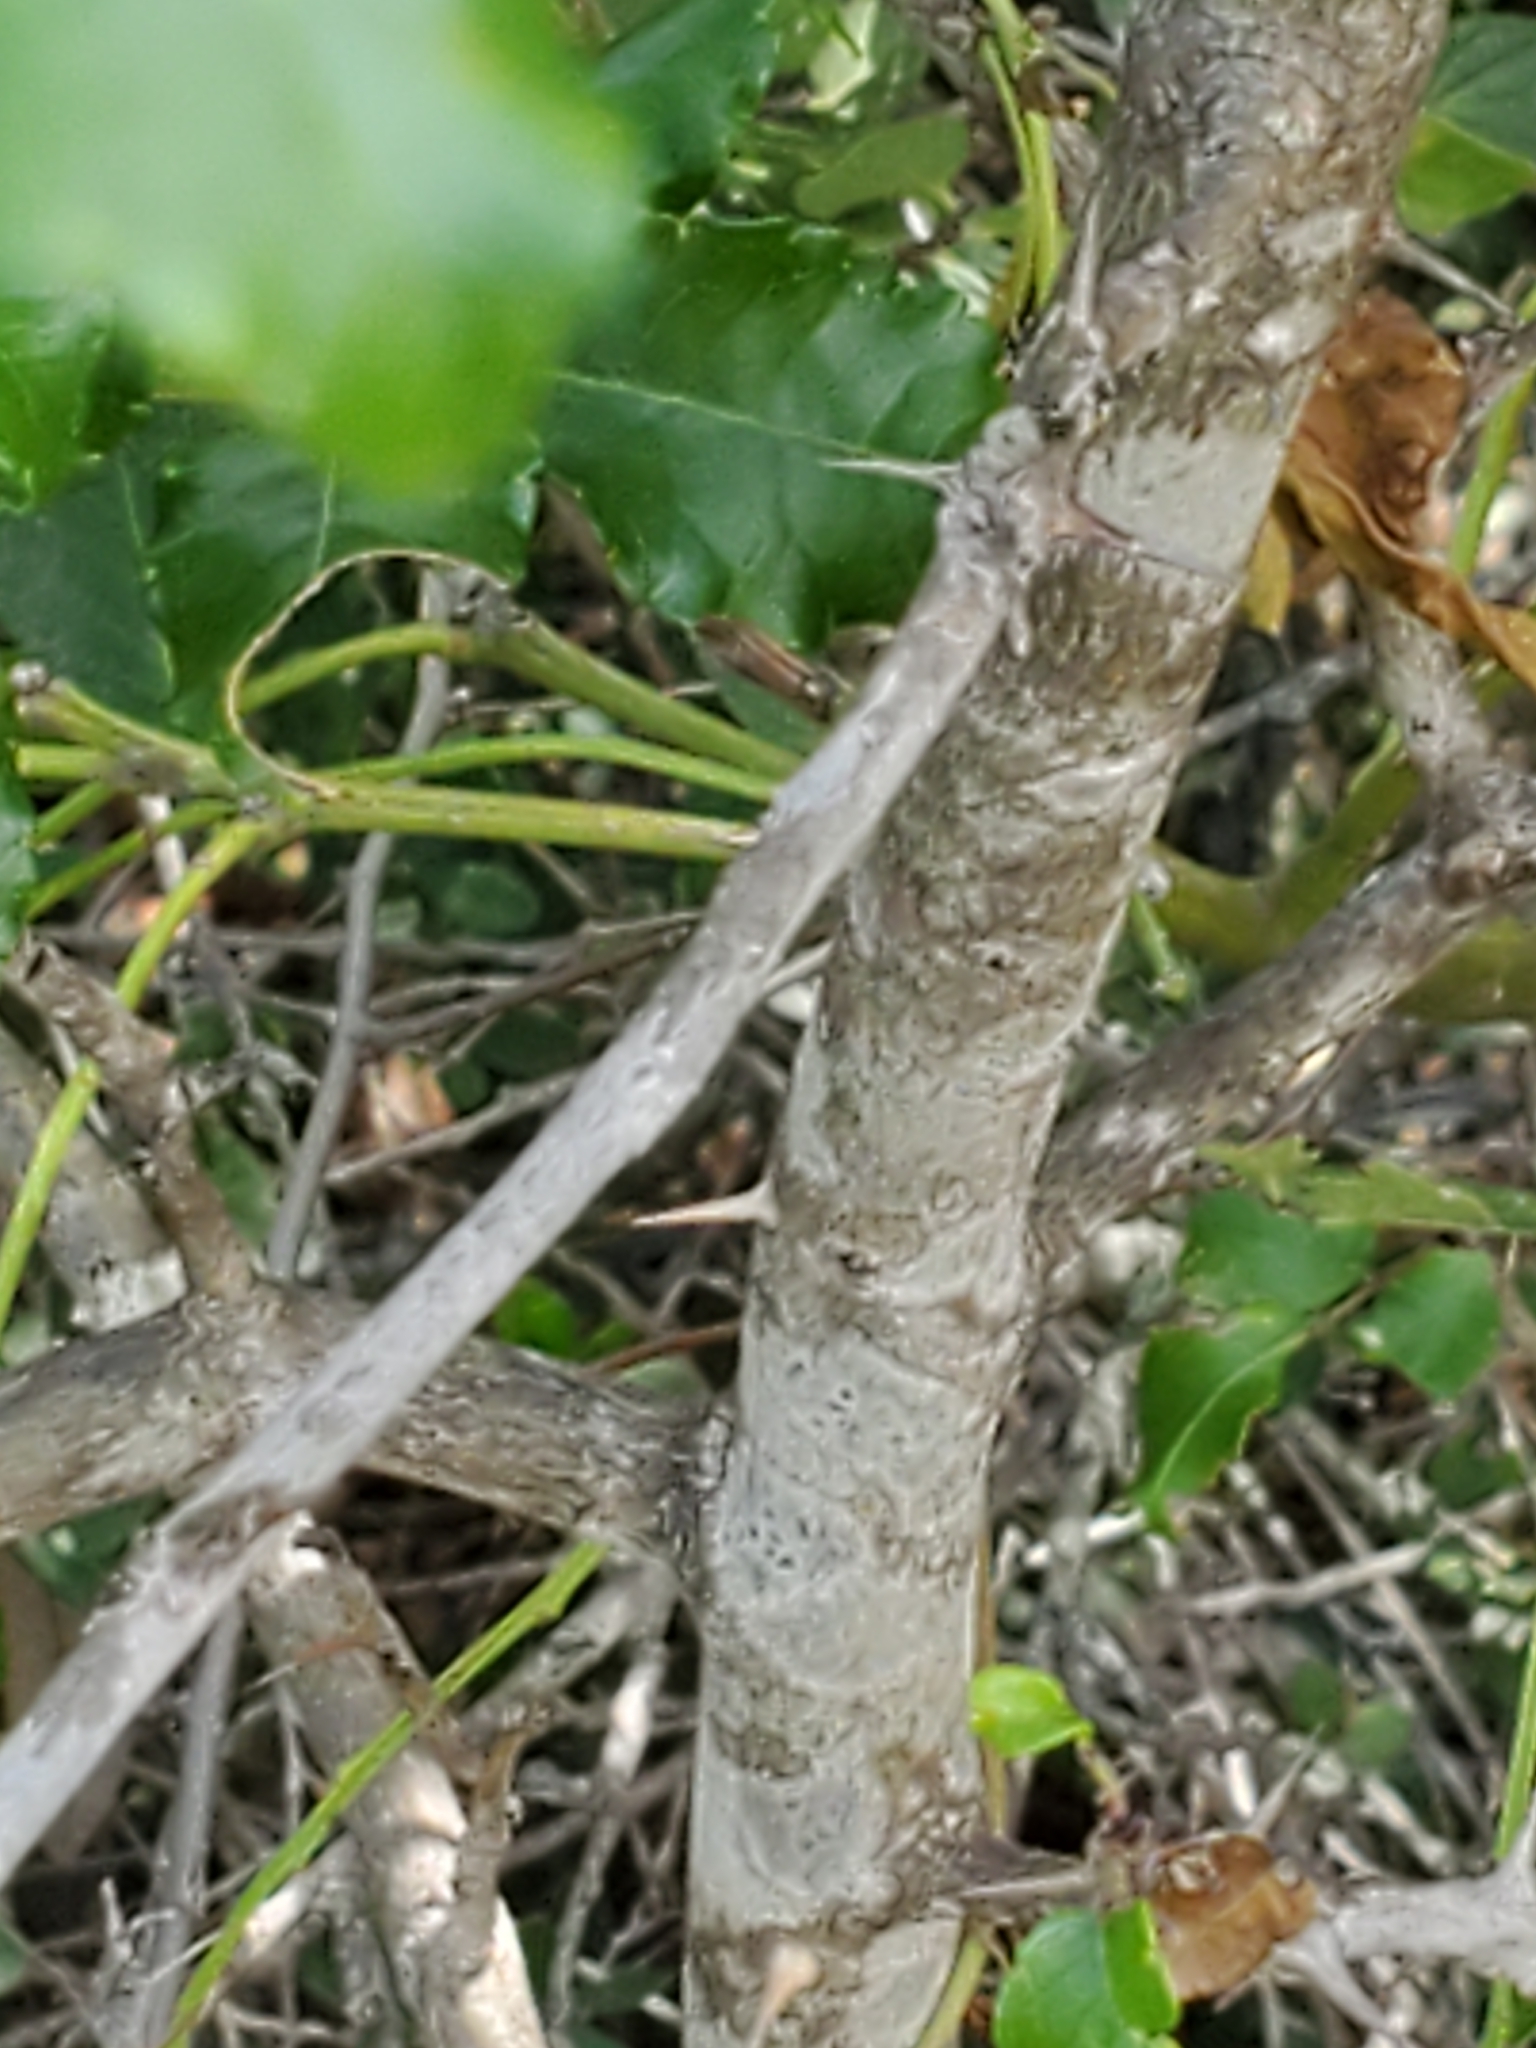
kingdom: Plantae
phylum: Tracheophyta
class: Magnoliopsida
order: Sapindales
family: Rutaceae
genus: Zanthoxylum
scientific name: Zanthoxylum clava-herculis
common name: Hercules'-club
